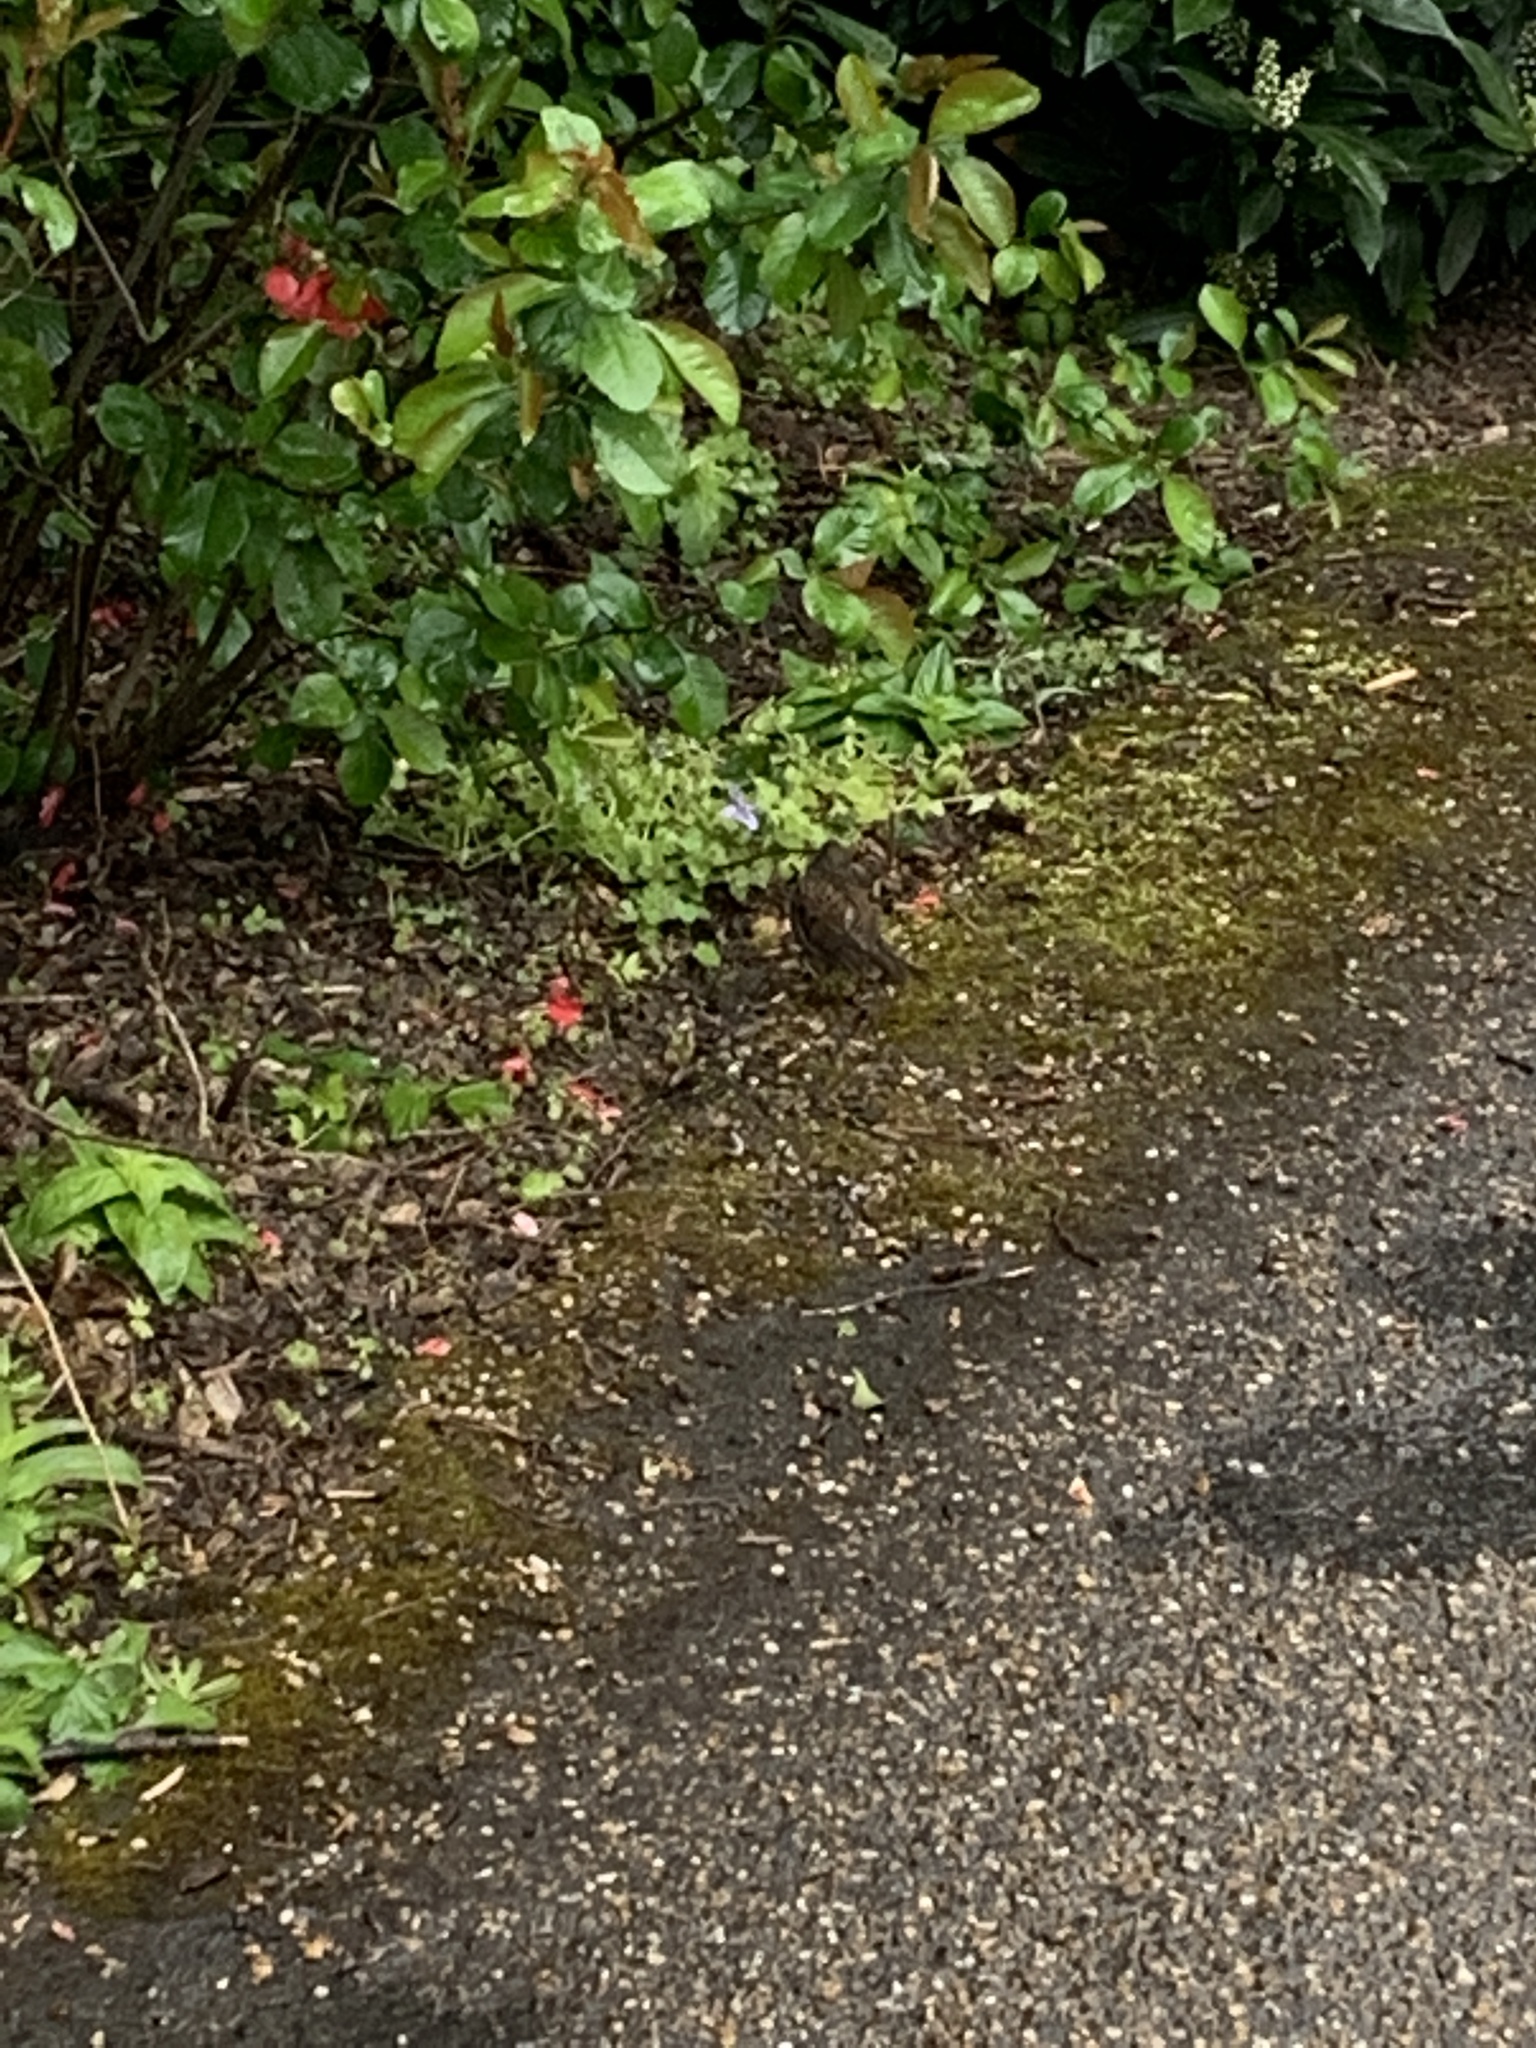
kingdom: Animalia
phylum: Chordata
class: Aves
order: Passeriformes
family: Prunellidae
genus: Prunella
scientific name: Prunella modularis
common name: Dunnock
